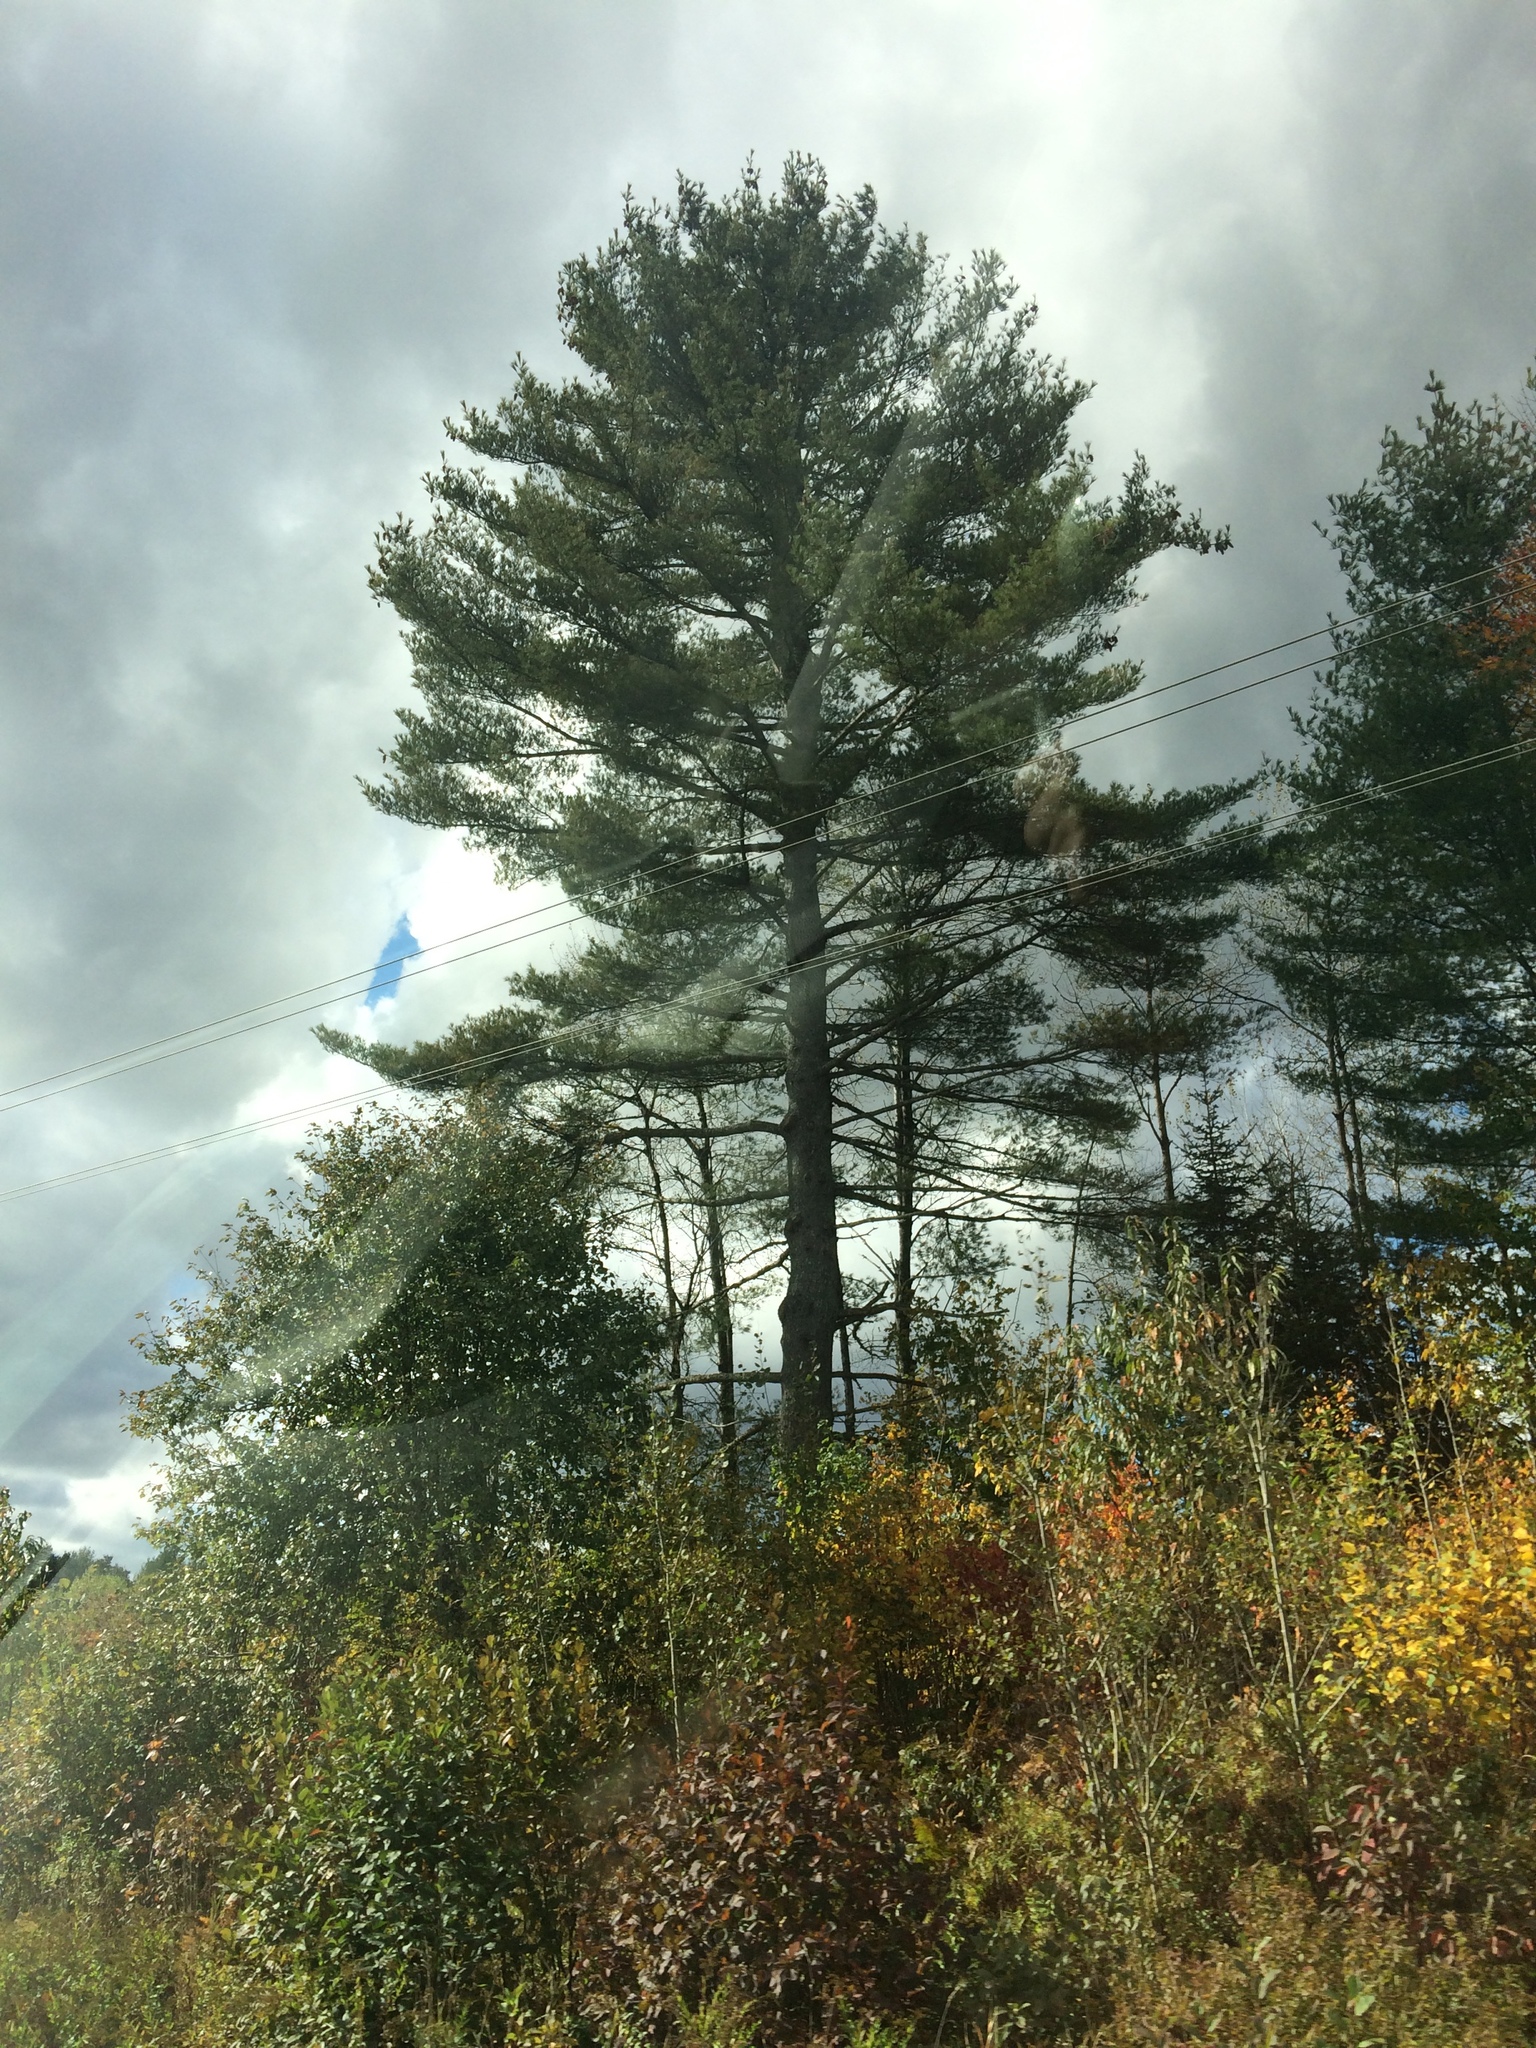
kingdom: Plantae
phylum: Tracheophyta
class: Pinopsida
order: Pinales
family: Pinaceae
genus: Pinus
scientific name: Pinus strobus
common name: Weymouth pine
